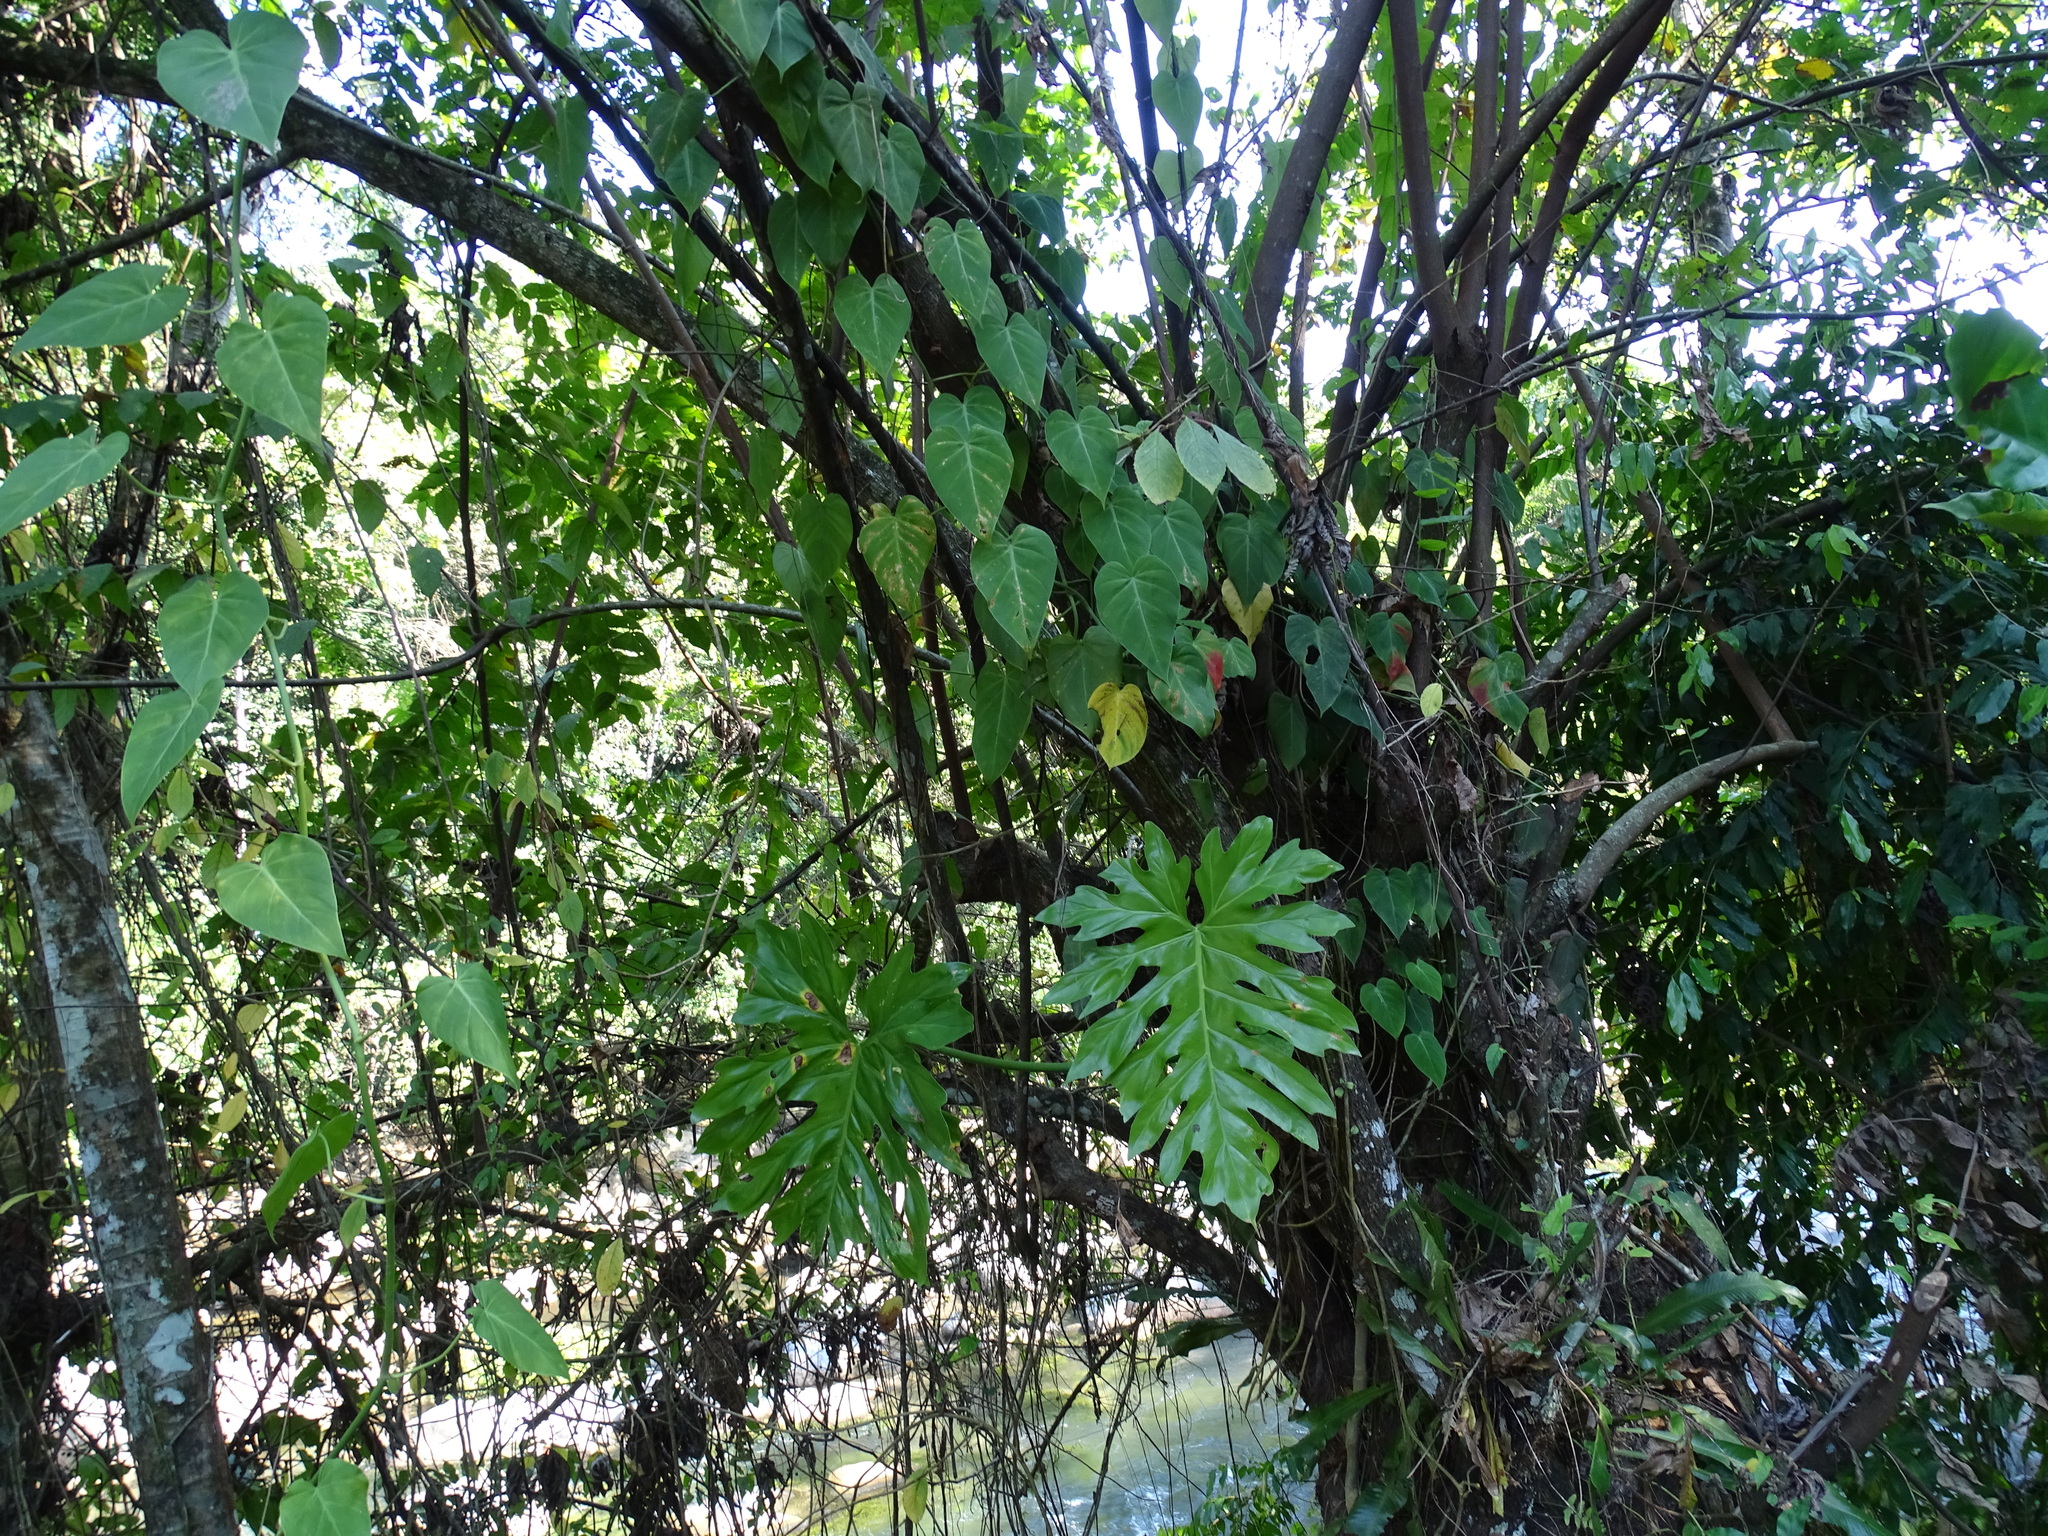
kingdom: Plantae
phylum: Tracheophyta
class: Liliopsida
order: Alismatales
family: Araceae
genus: Philodendron
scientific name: Philodendron radiatum
